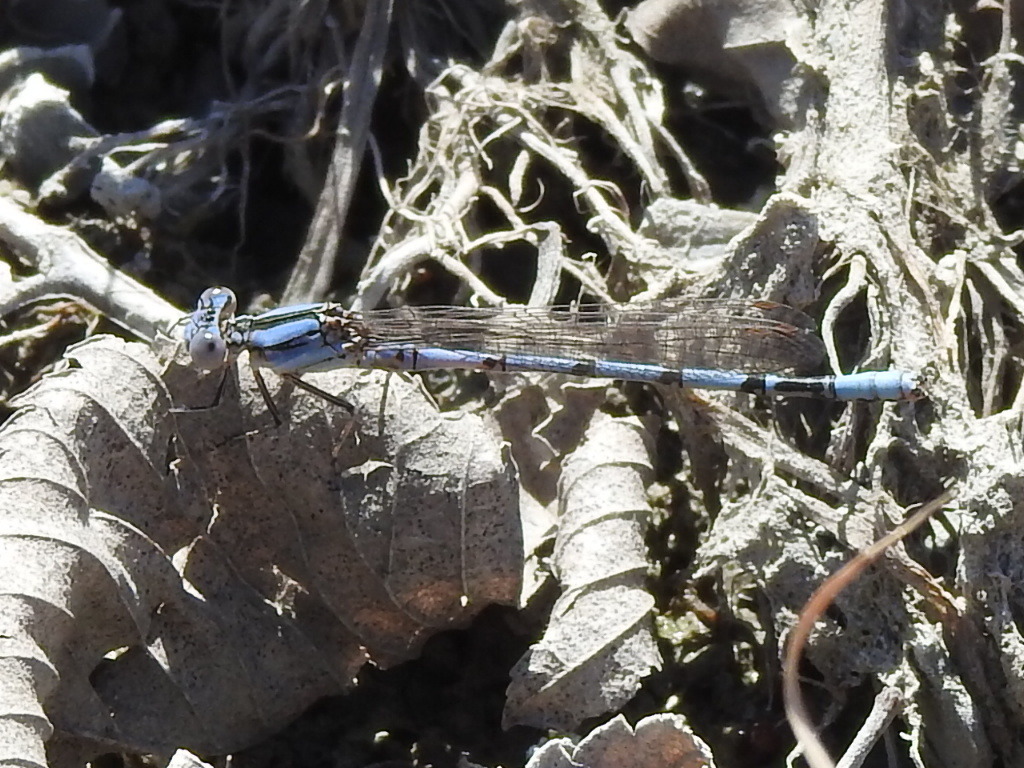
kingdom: Animalia
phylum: Arthropoda
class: Insecta
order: Odonata
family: Coenagrionidae
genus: Argia
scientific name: Argia nahuana
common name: Aztec dancer
